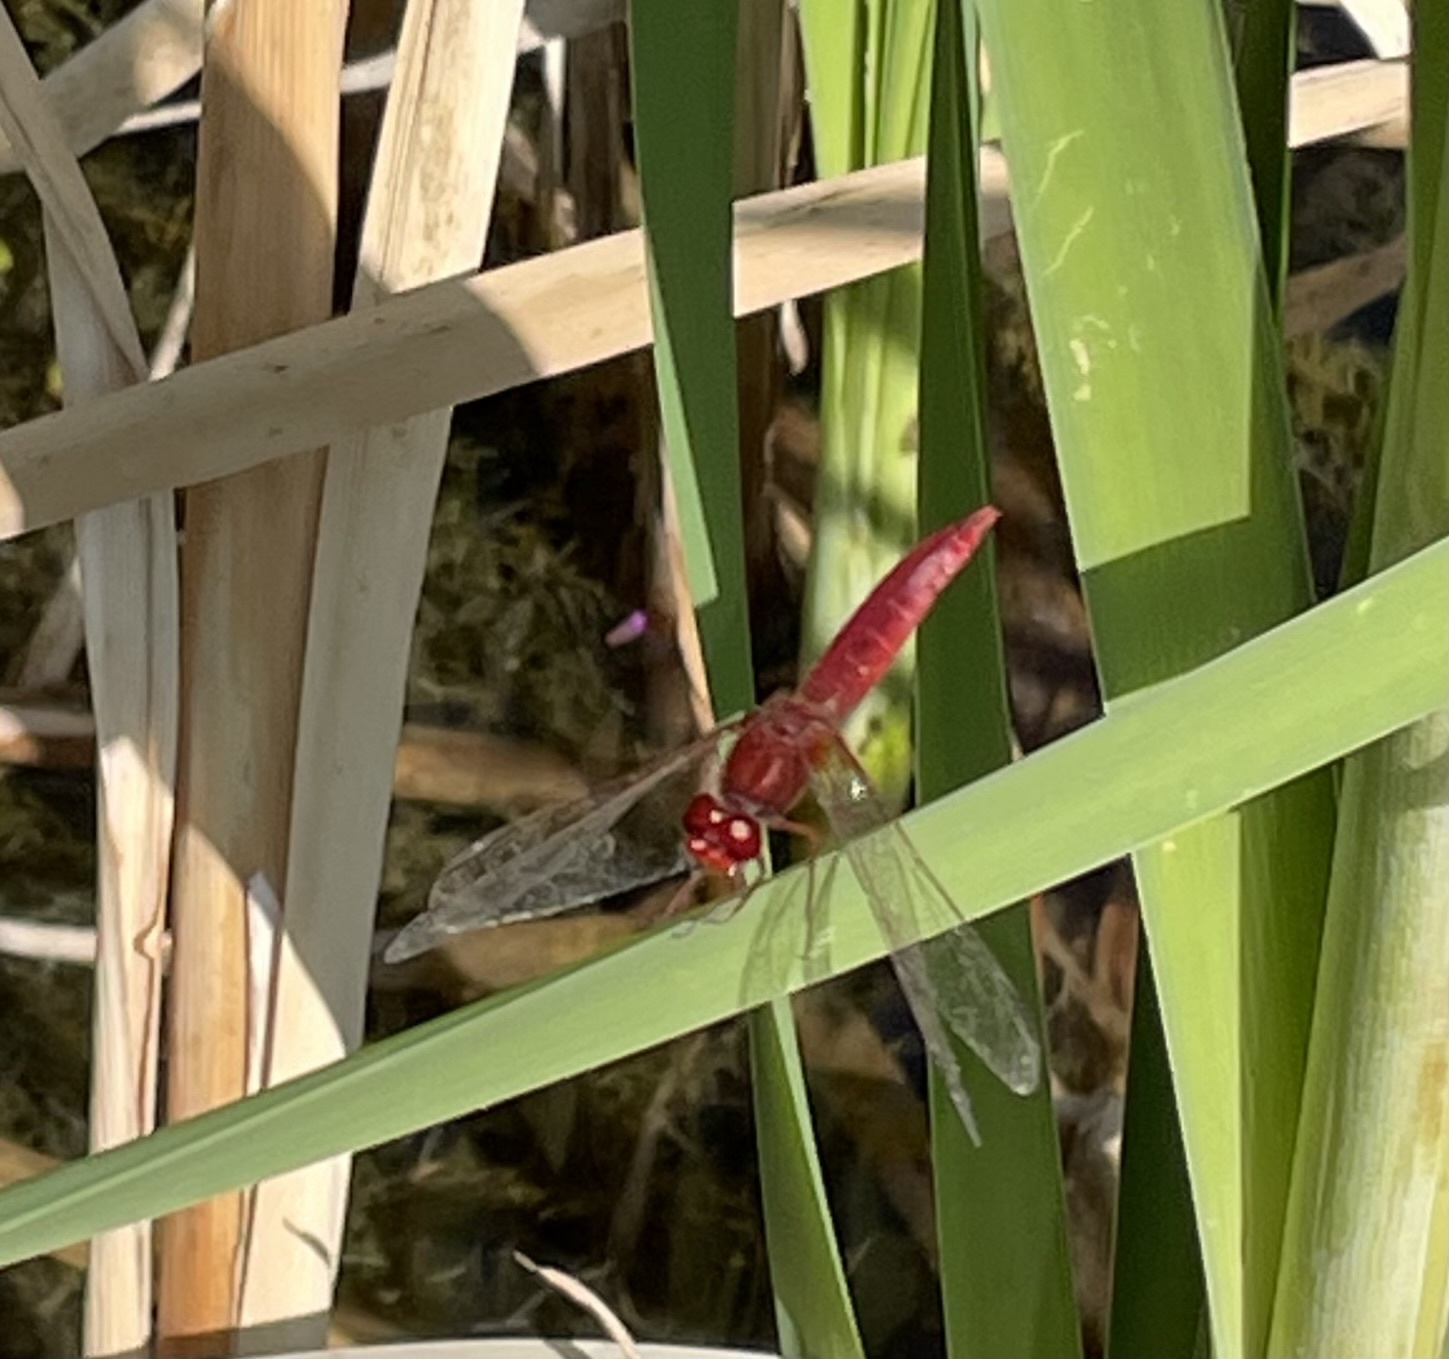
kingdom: Animalia
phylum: Arthropoda
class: Insecta
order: Odonata
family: Libellulidae
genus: Crocothemis
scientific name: Crocothemis erythraea
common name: Scarlet dragonfly
